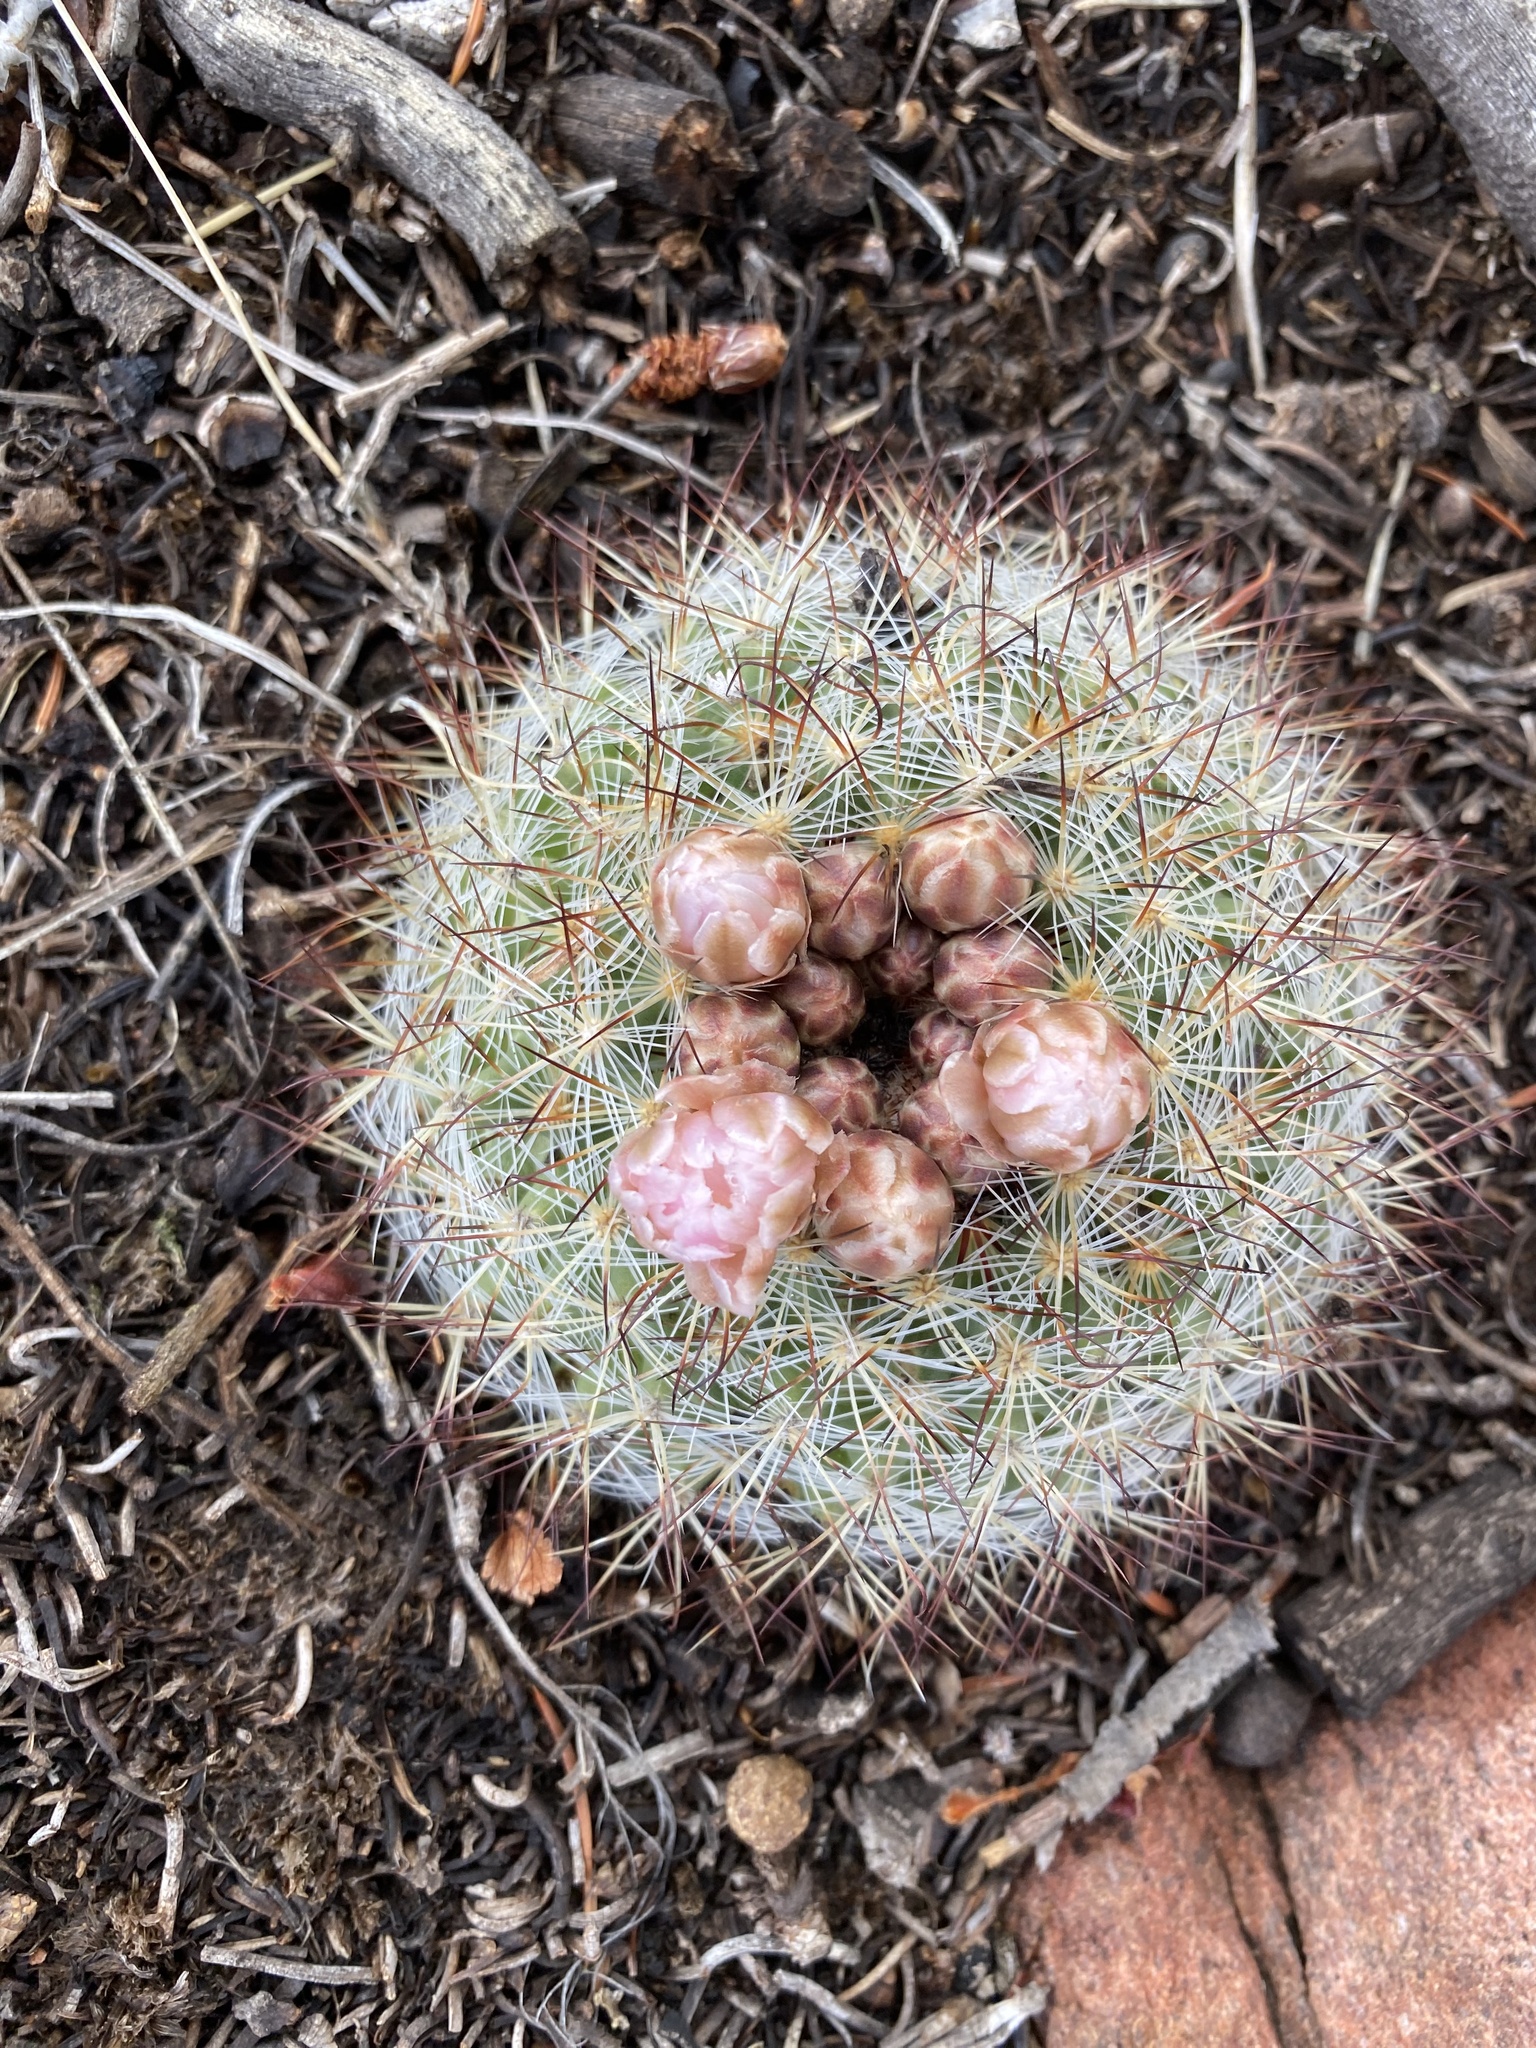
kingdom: Plantae
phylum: Tracheophyta
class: Magnoliopsida
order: Caryophyllales
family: Cactaceae
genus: Pediocactus
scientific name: Pediocactus simpsonii
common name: Simpson's hedgehog cactus
